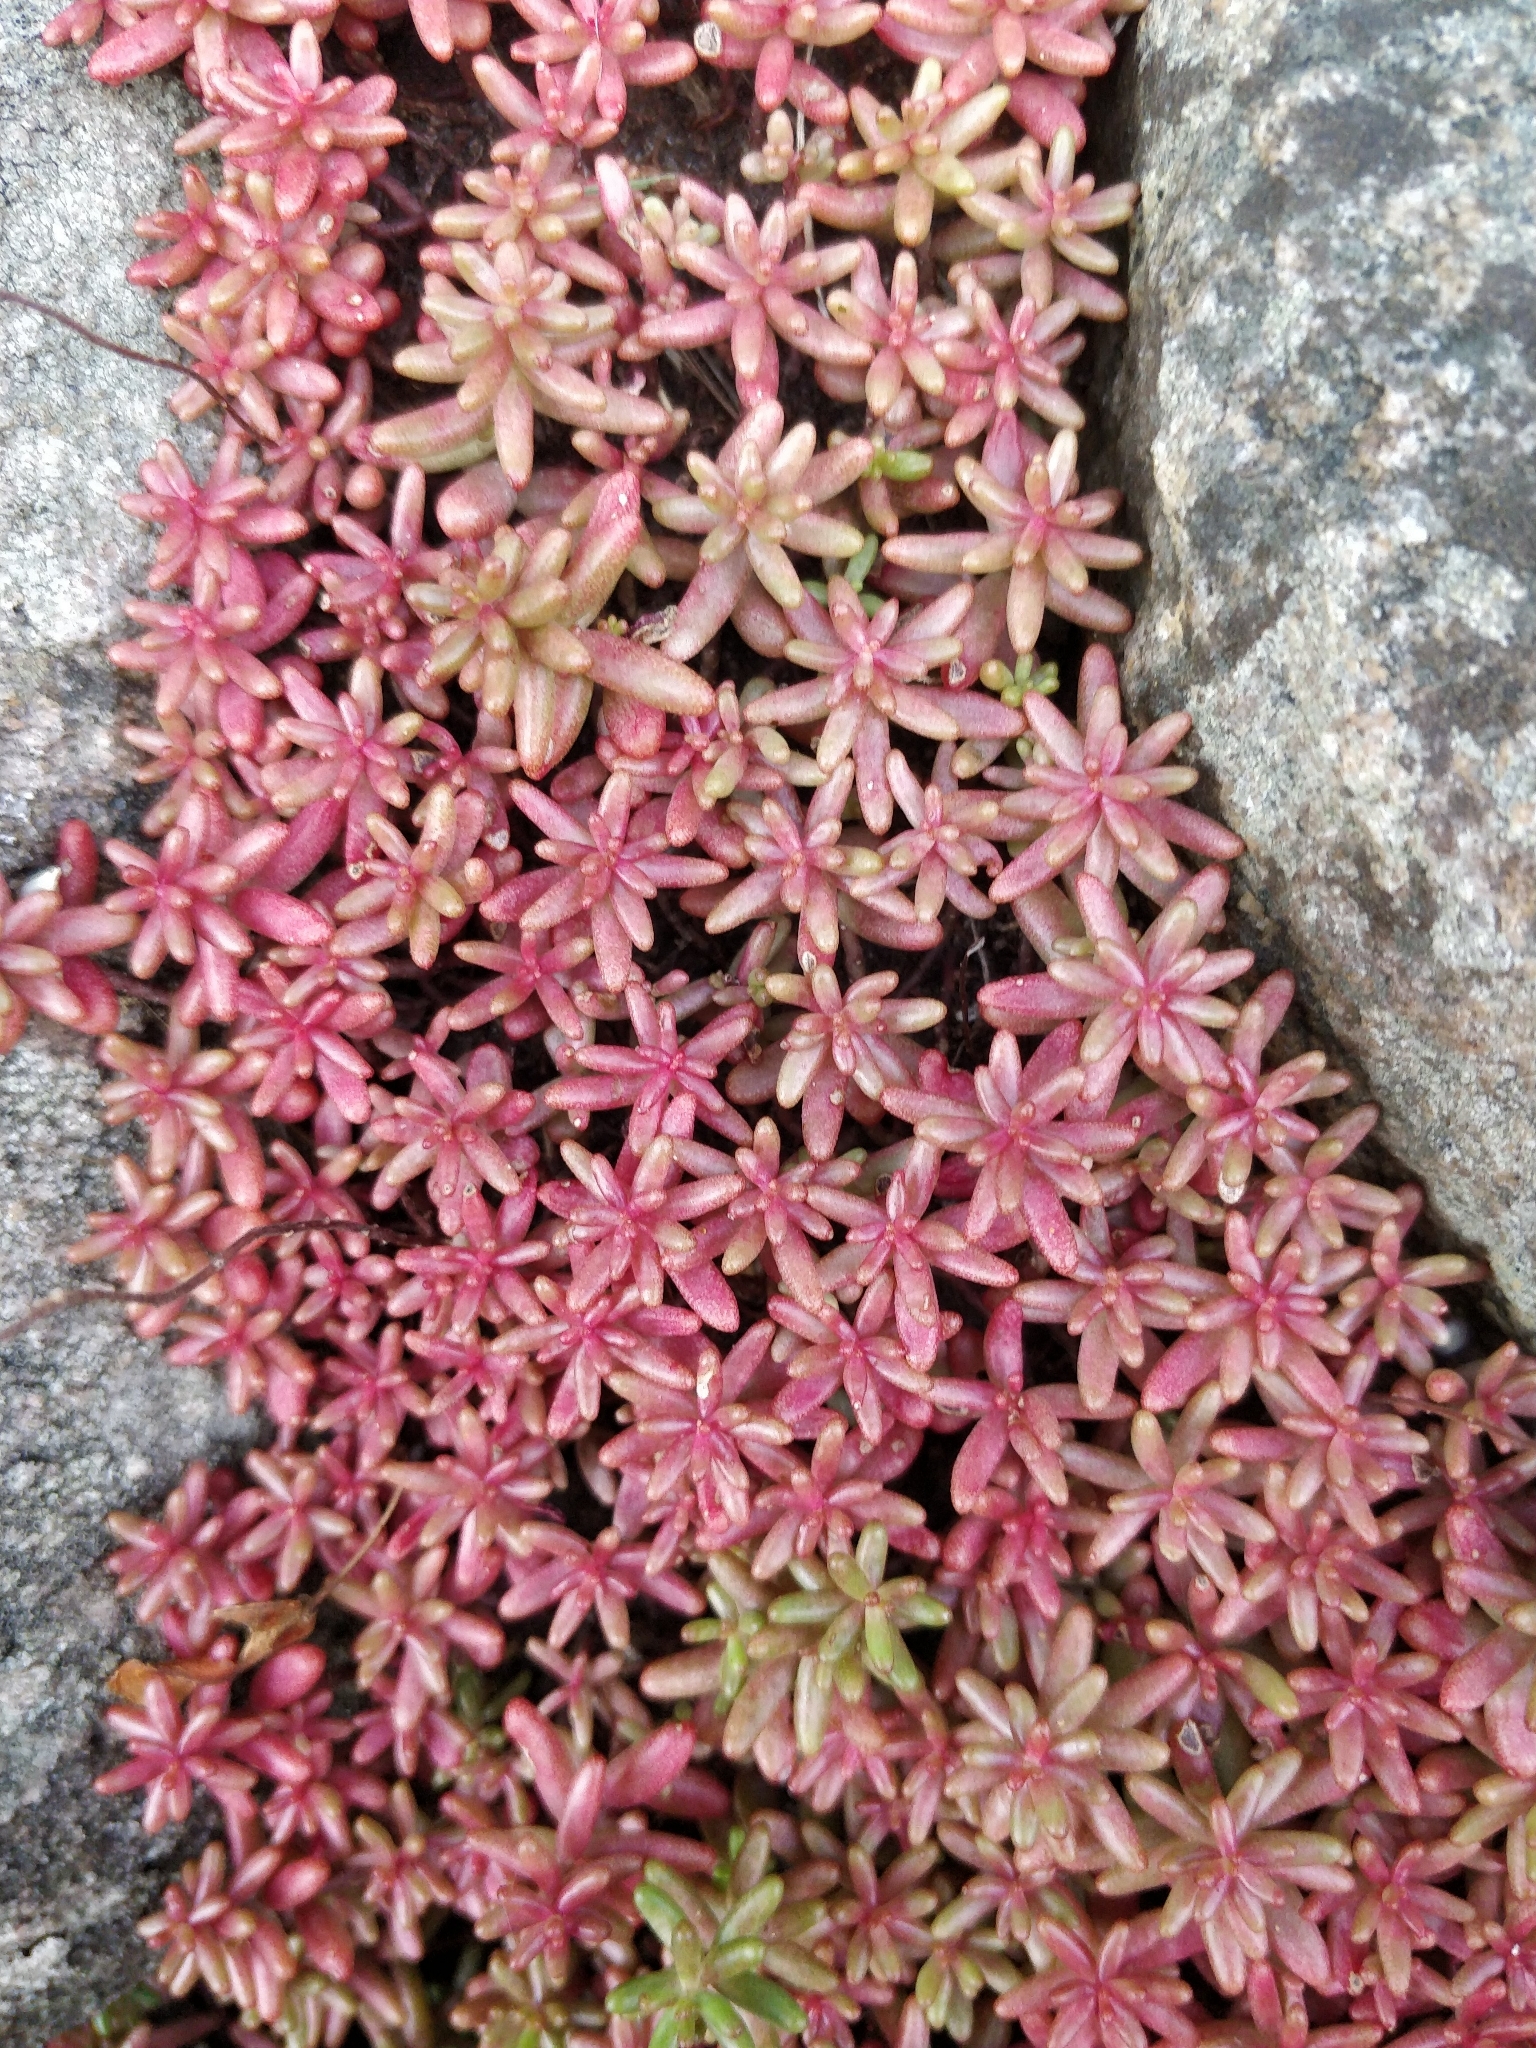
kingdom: Plantae
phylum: Tracheophyta
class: Magnoliopsida
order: Saxifragales
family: Crassulaceae
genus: Sedum
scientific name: Sedum album
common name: White stonecrop
